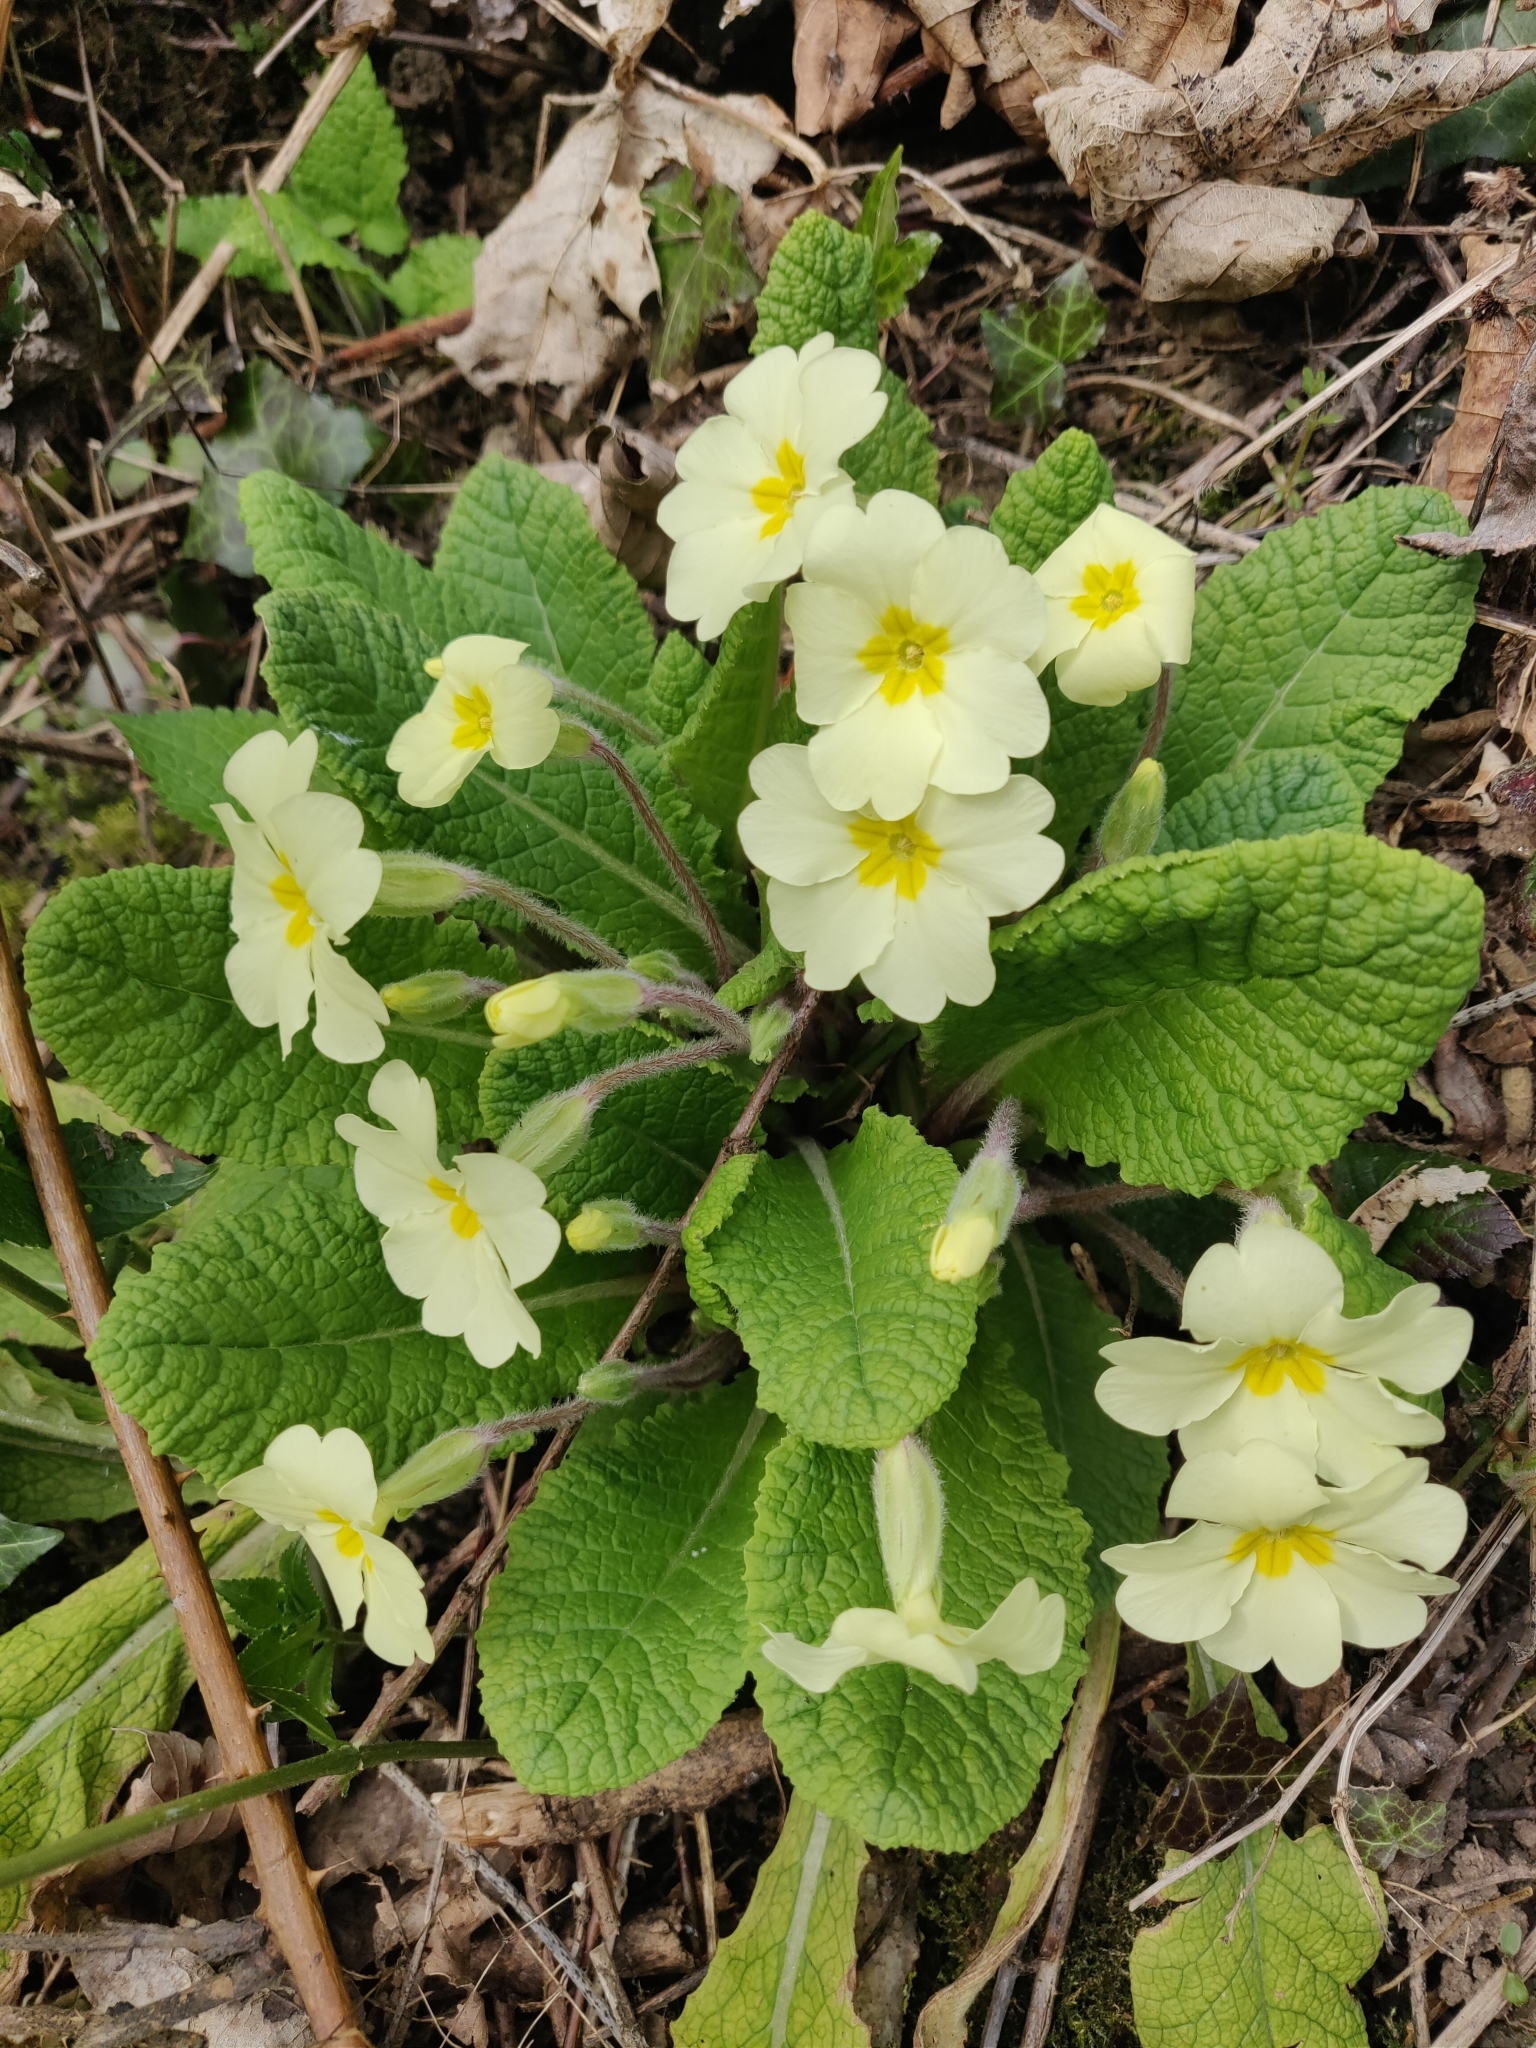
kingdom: Plantae
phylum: Tracheophyta
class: Magnoliopsida
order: Ericales
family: Primulaceae
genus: Primula
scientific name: Primula vulgaris
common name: Primrose
